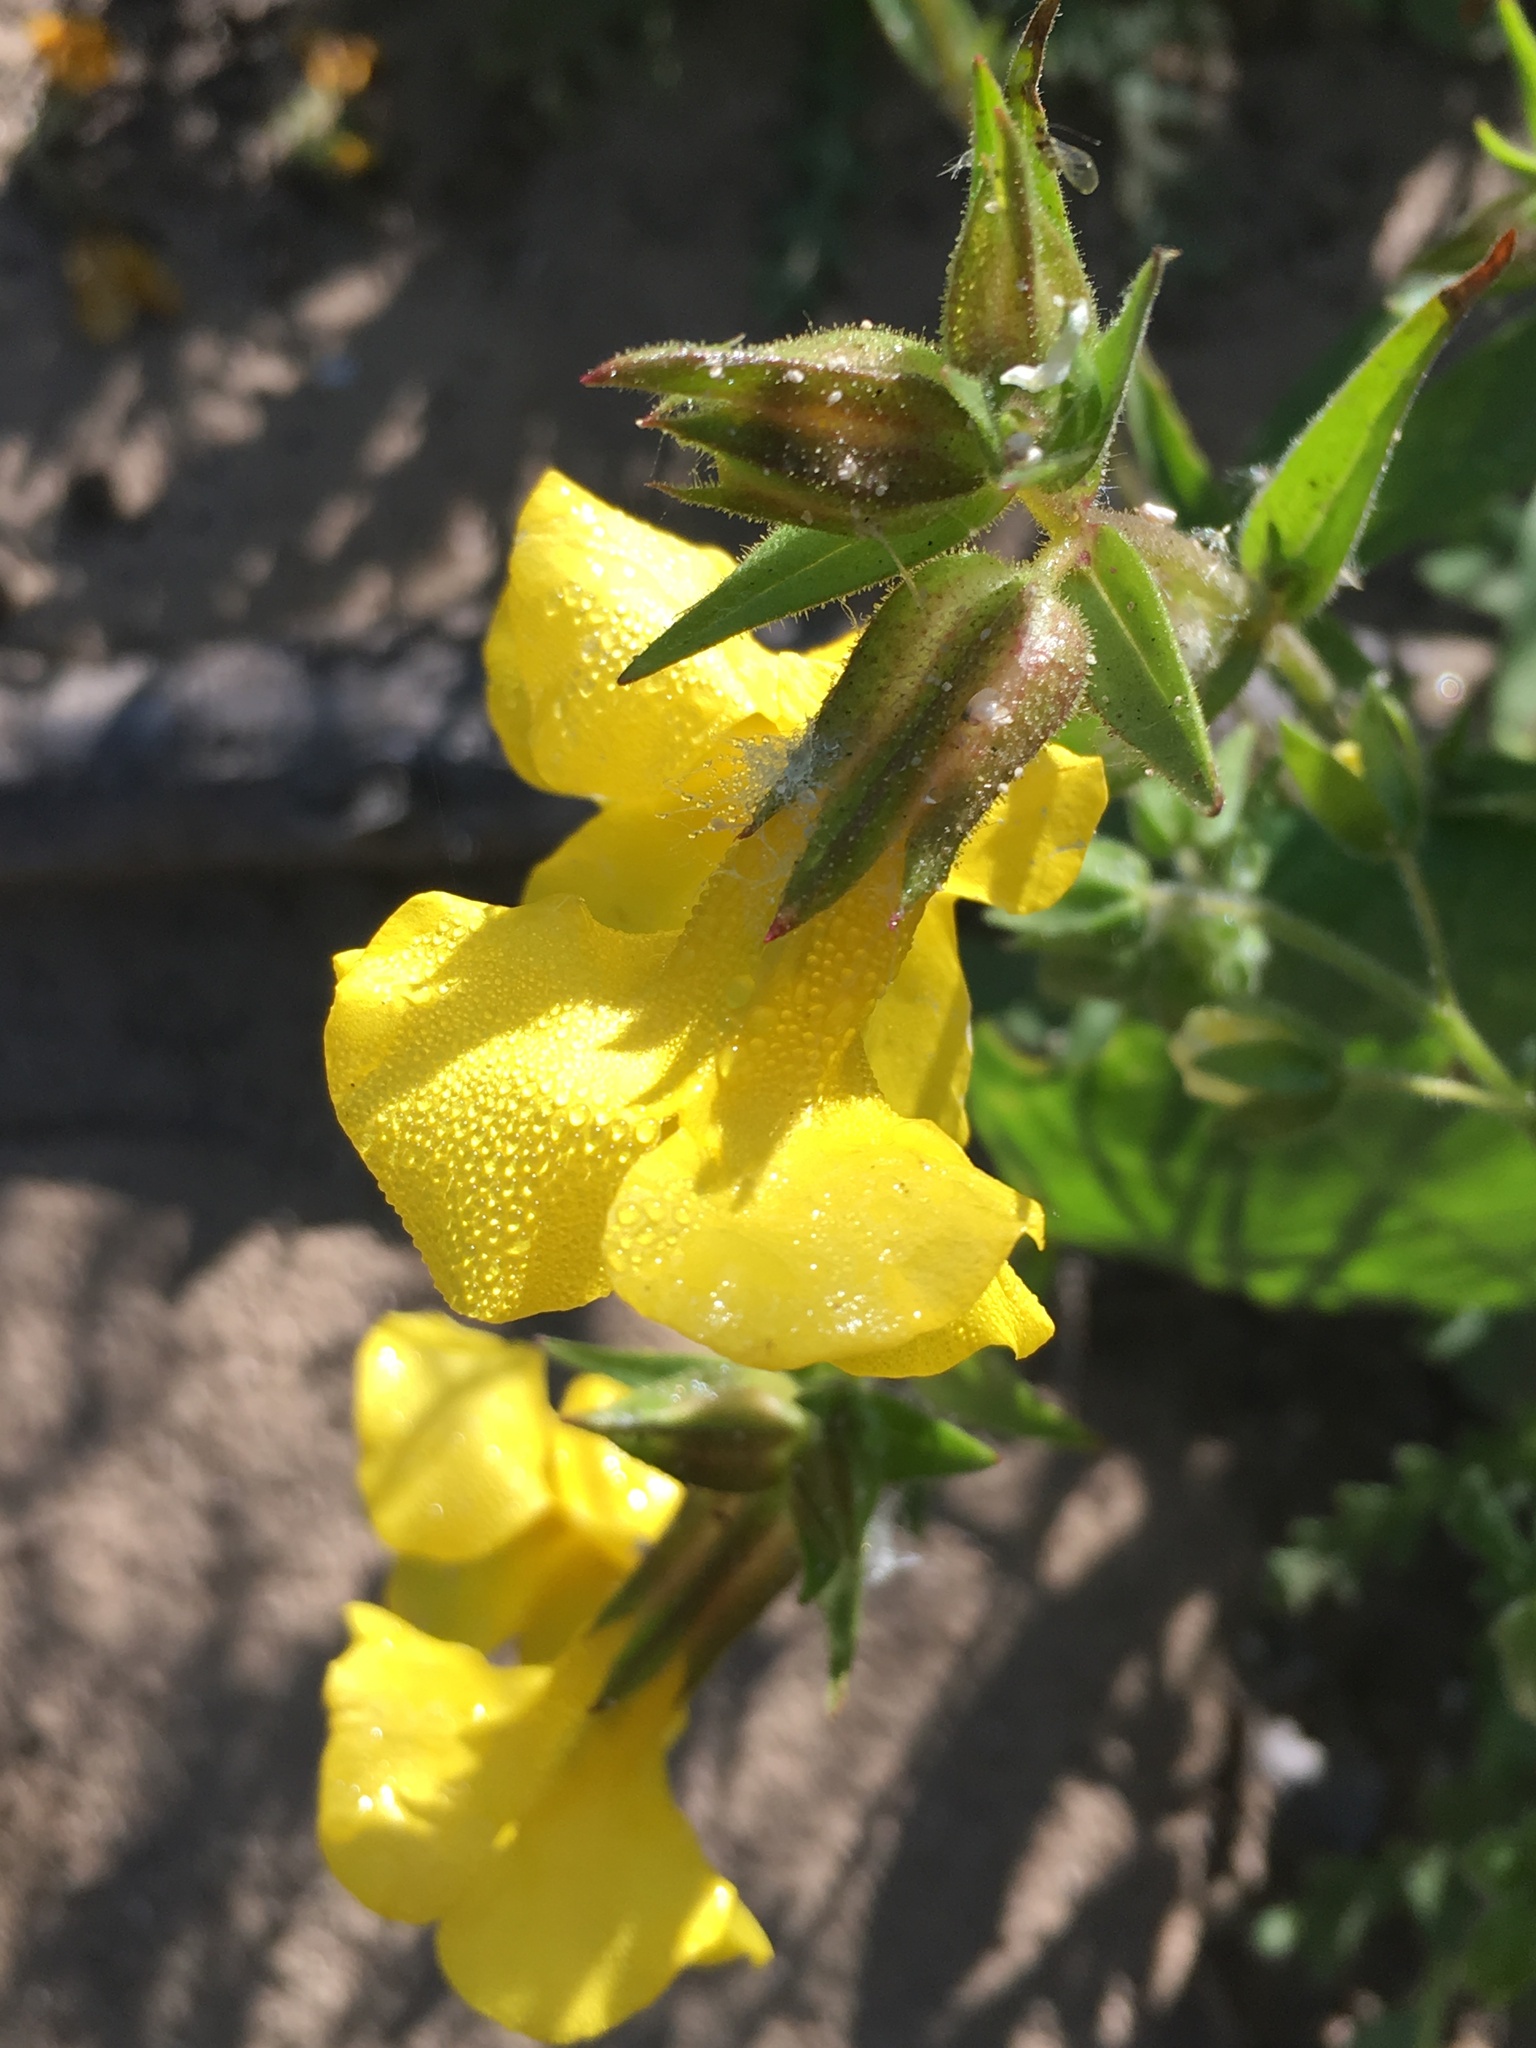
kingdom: Plantae
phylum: Tracheophyta
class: Magnoliopsida
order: Lamiales
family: Phrymaceae
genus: Diplacus
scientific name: Diplacus brevipes
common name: Wide-throat yellow monkey-flower
